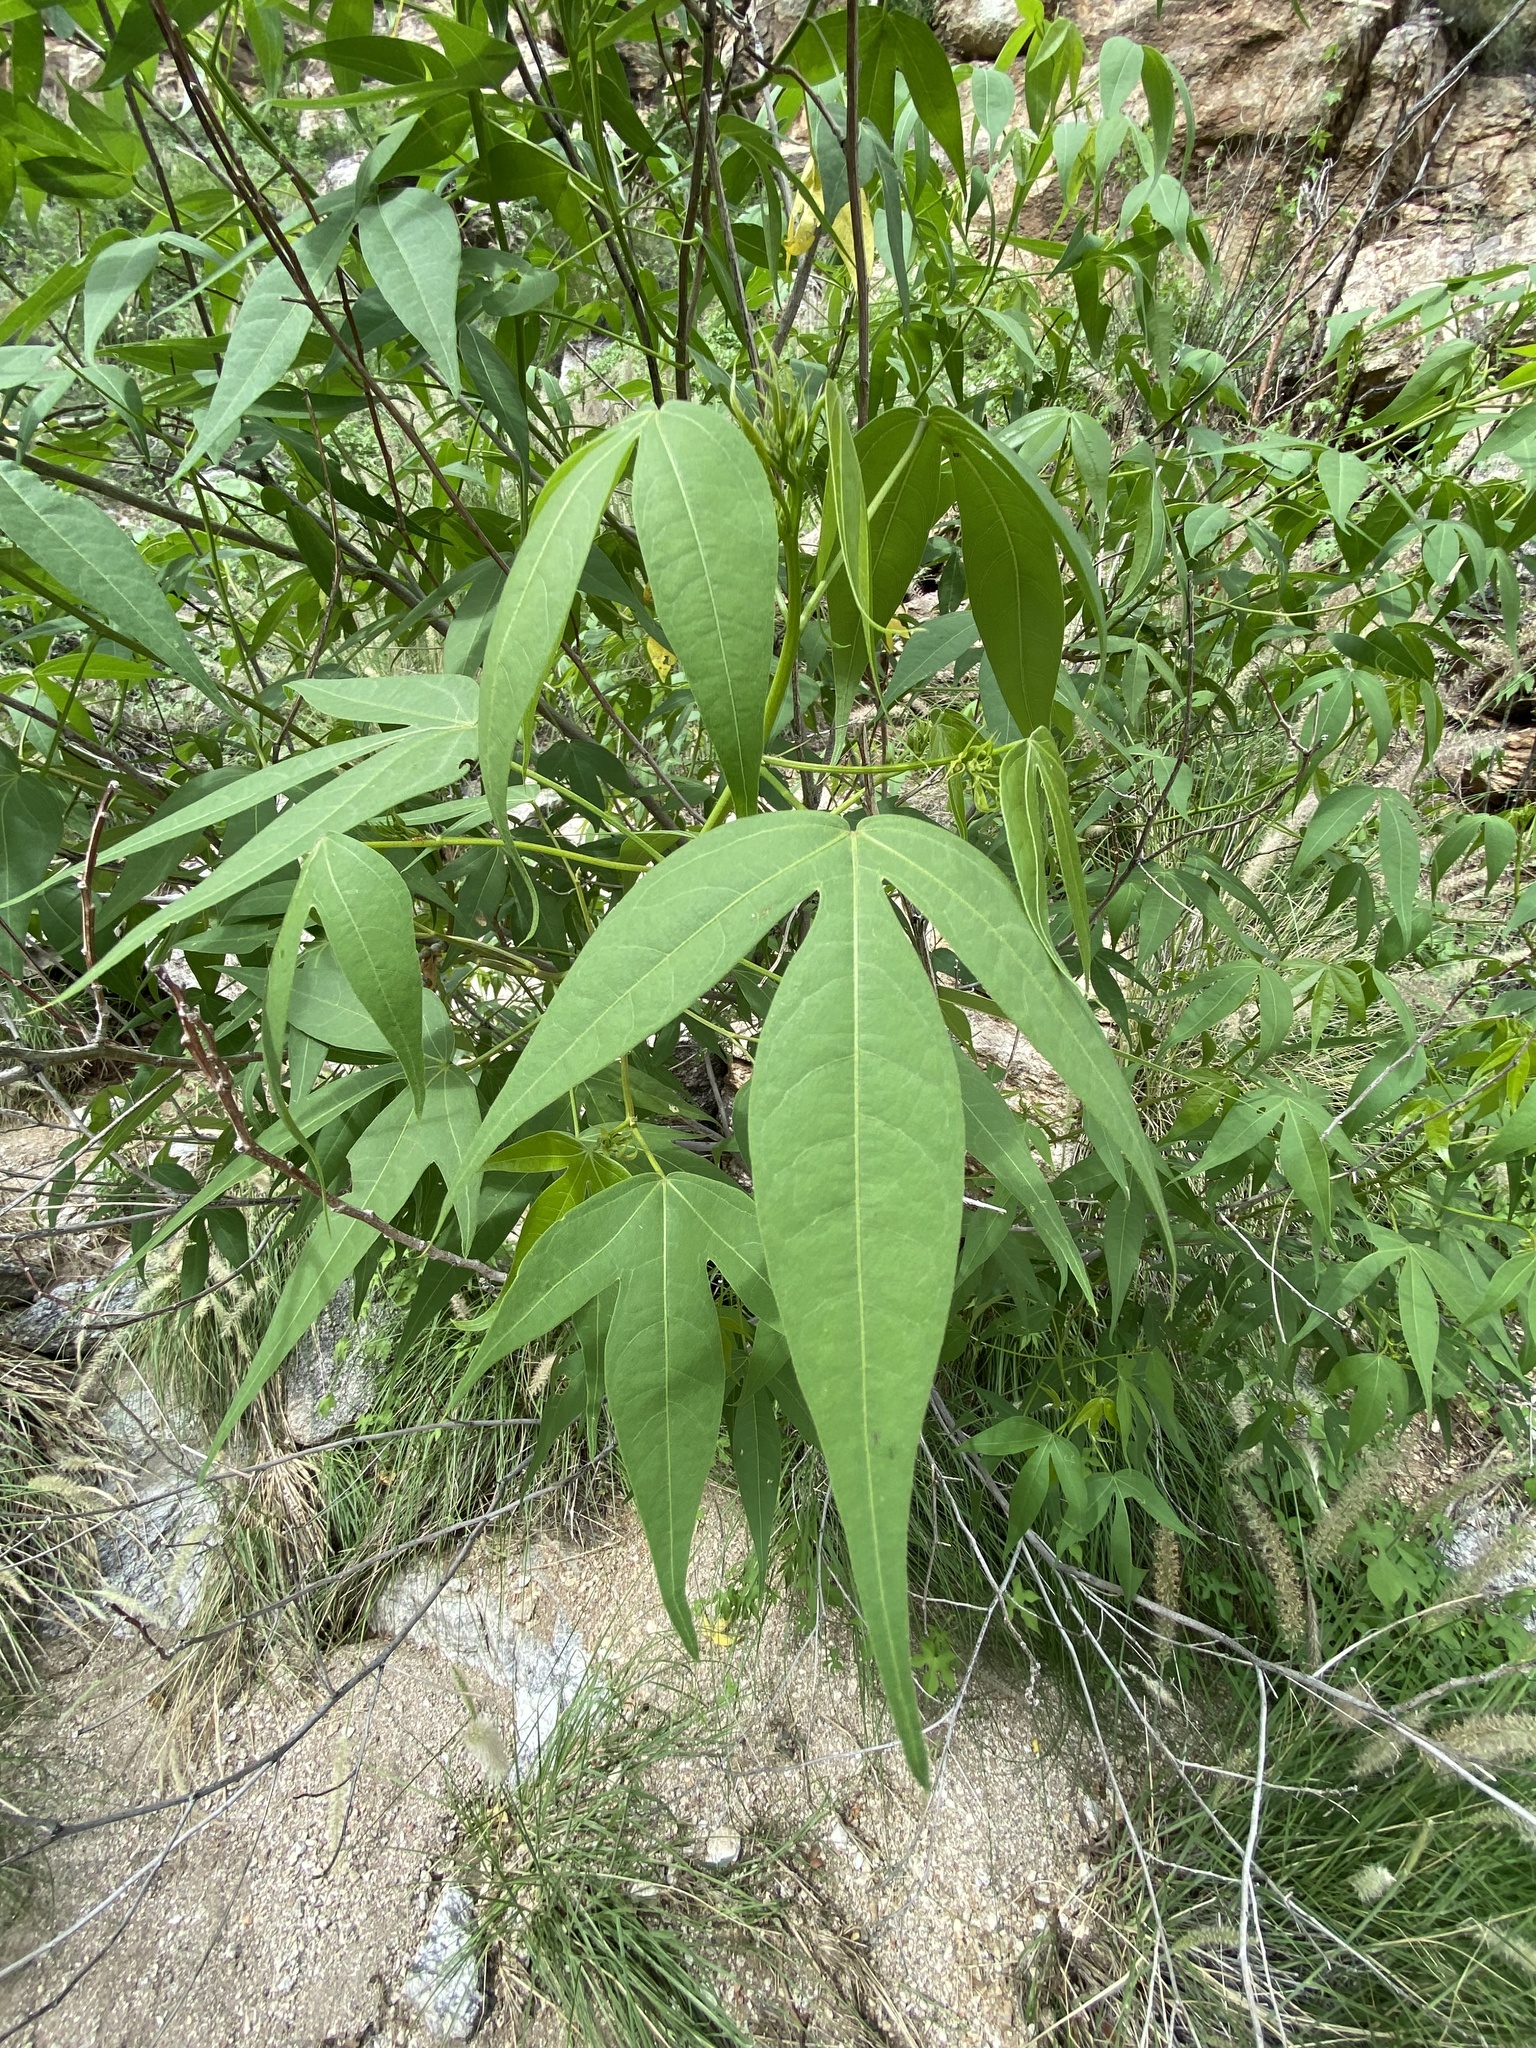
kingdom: Plantae
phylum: Tracheophyta
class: Magnoliopsida
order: Malvales
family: Malvaceae
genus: Gossypium
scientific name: Gossypium thurberi
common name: Desert cotton
